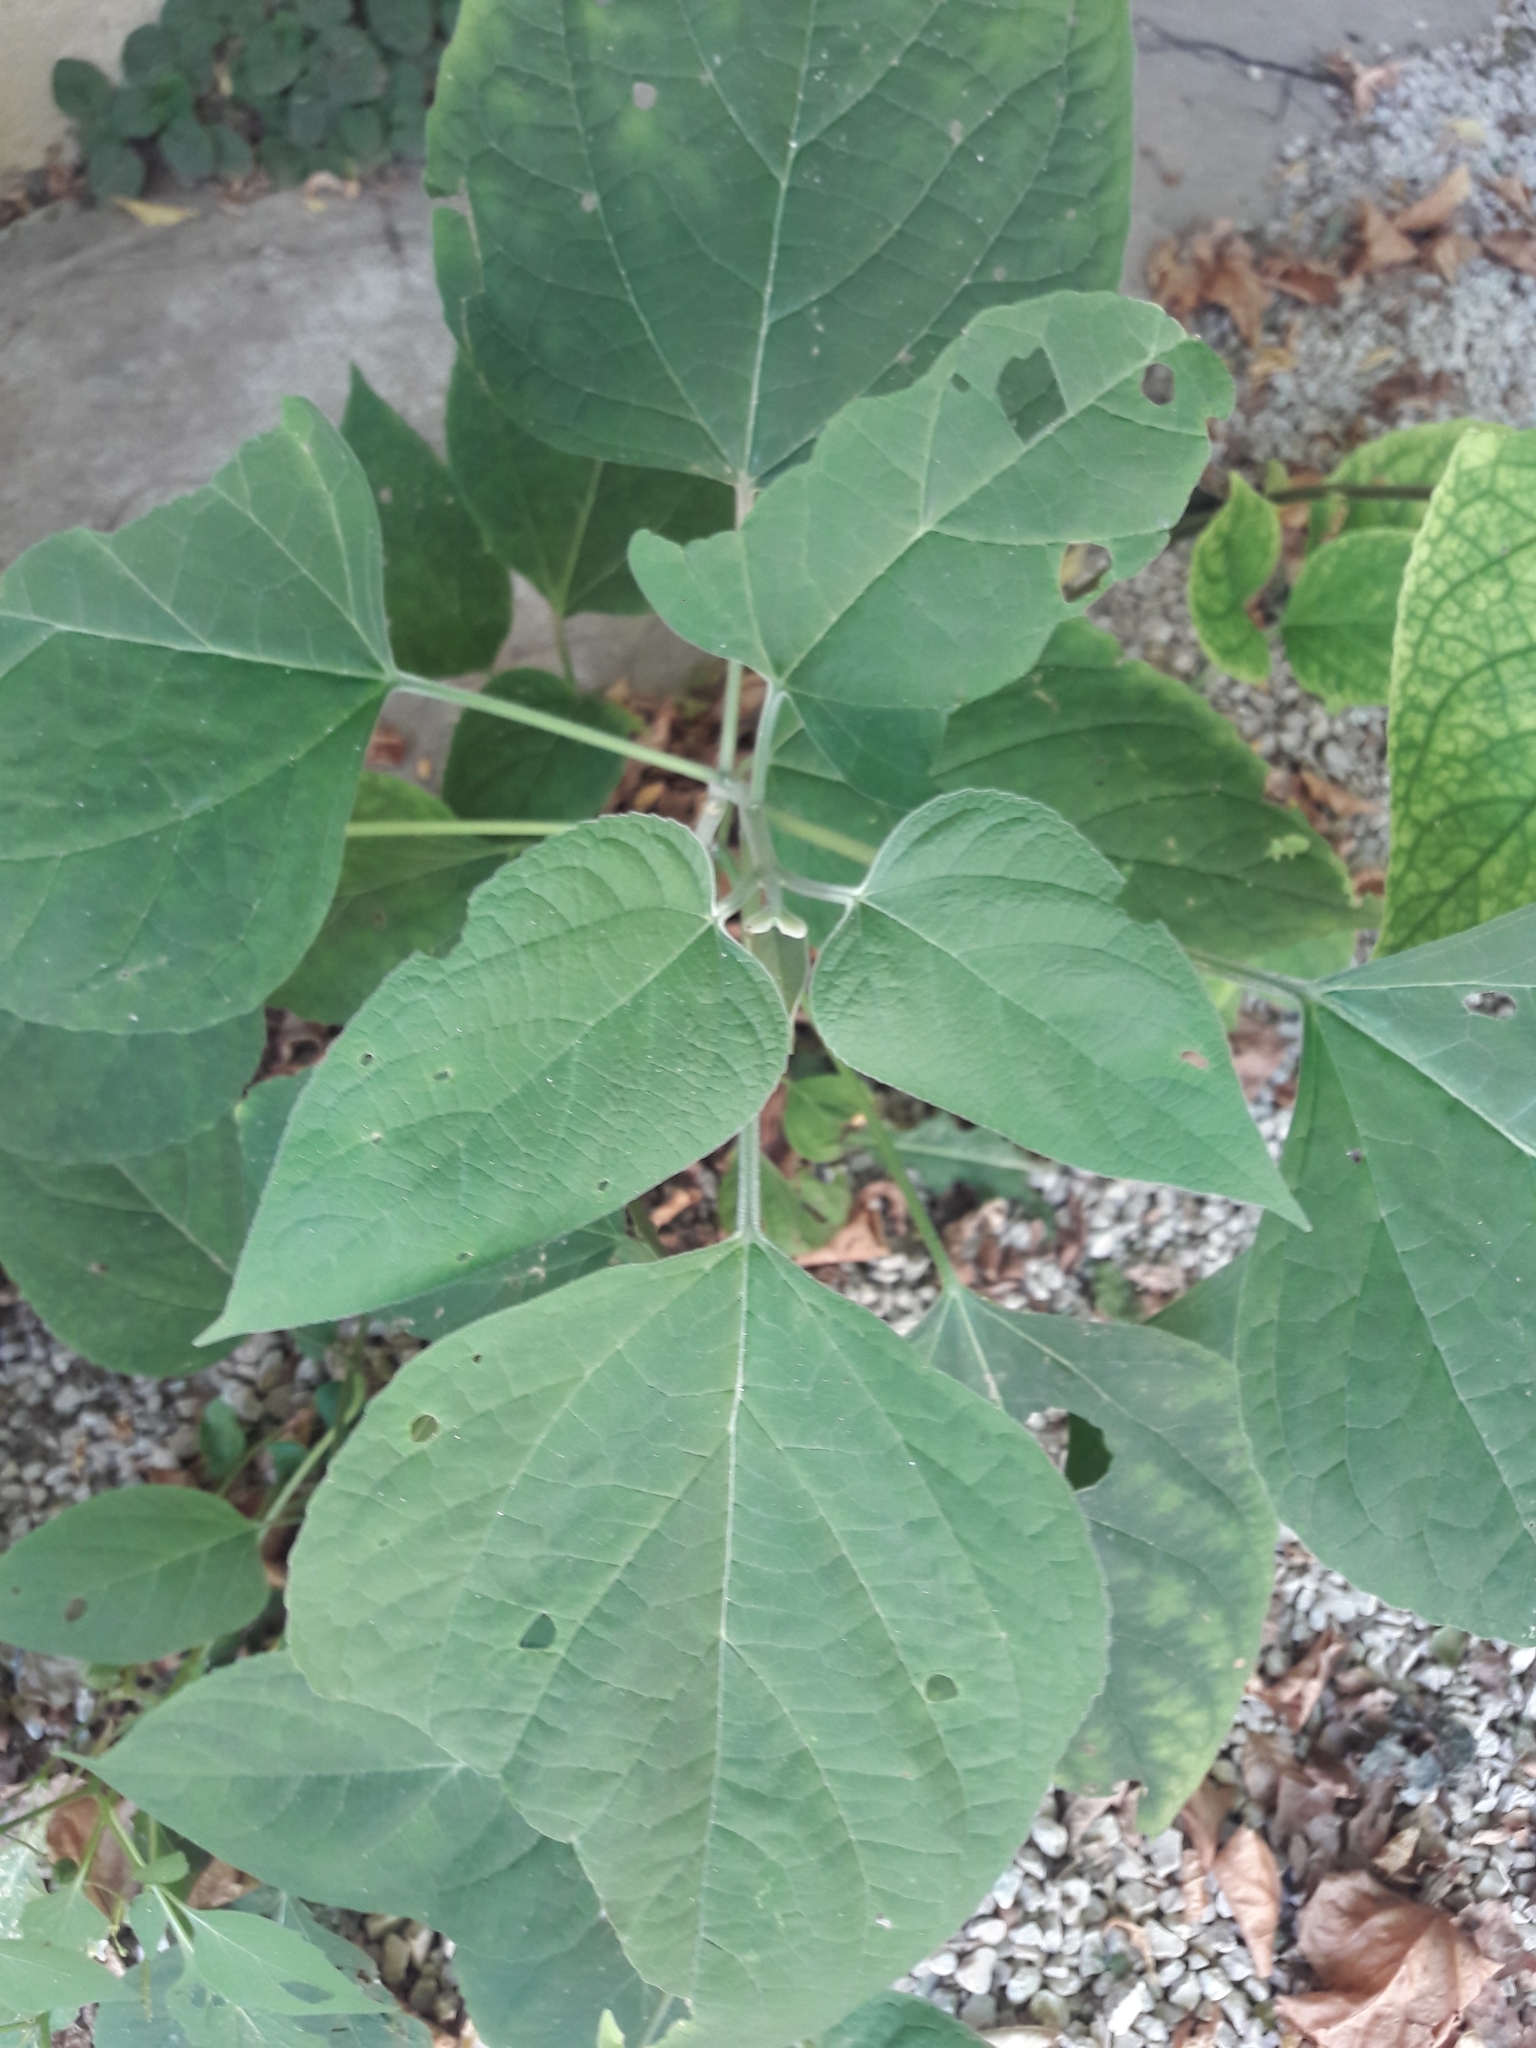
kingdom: Plantae
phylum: Tracheophyta
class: Magnoliopsida
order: Lamiales
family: Lamiaceae
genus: Clerodendrum
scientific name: Clerodendrum trichotomum
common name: Harlequin glorybower
